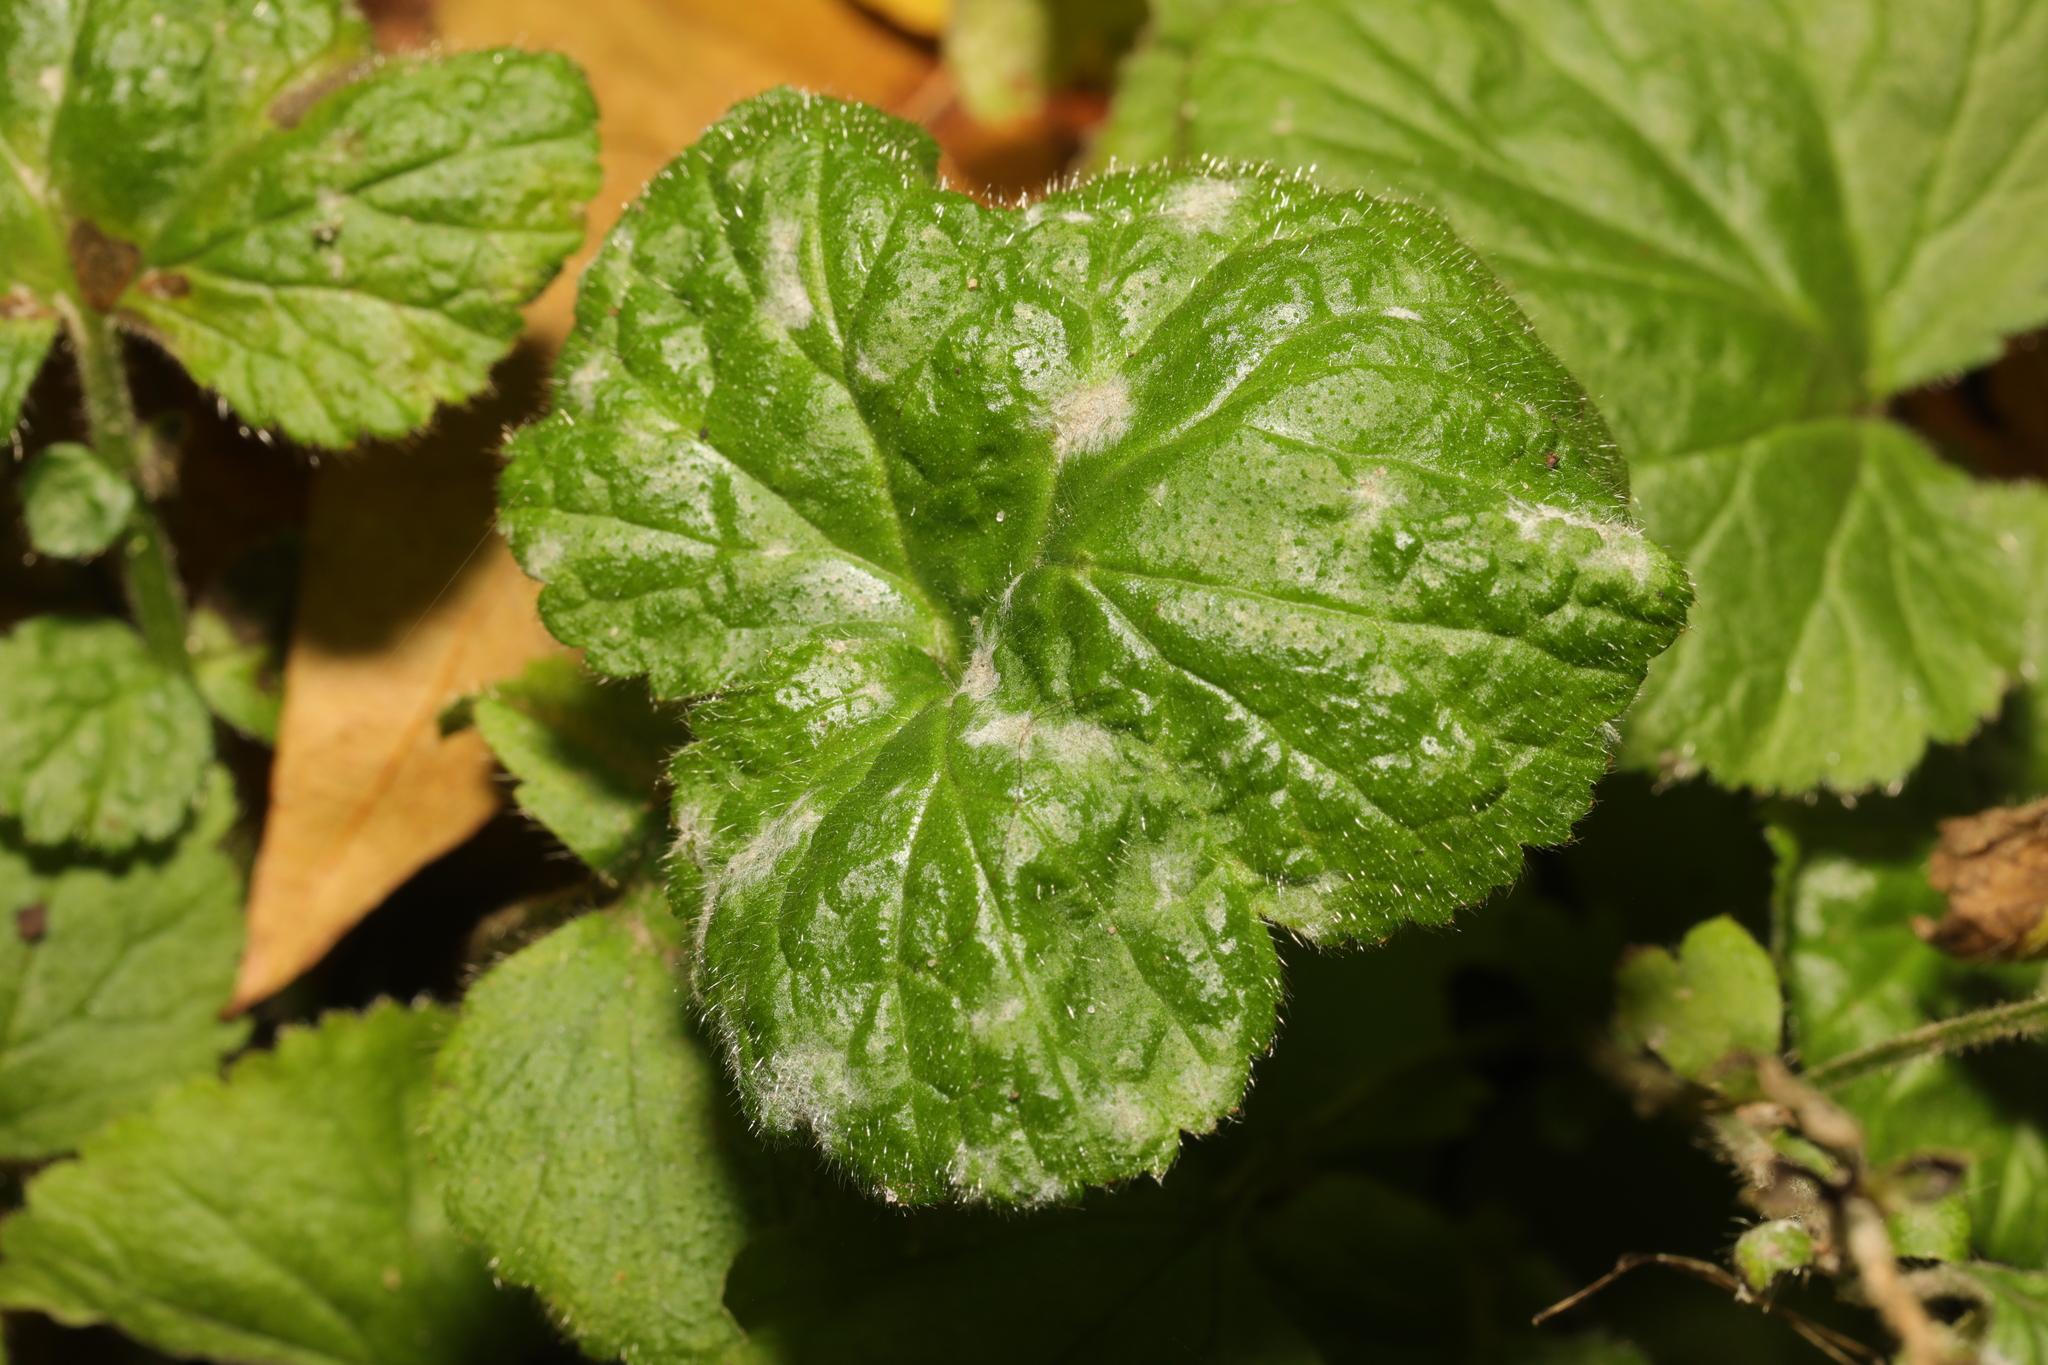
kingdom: Fungi
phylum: Ascomycota
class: Leotiomycetes
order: Helotiales
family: Erysiphaceae
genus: Podosphaera
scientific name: Podosphaera aphanis
